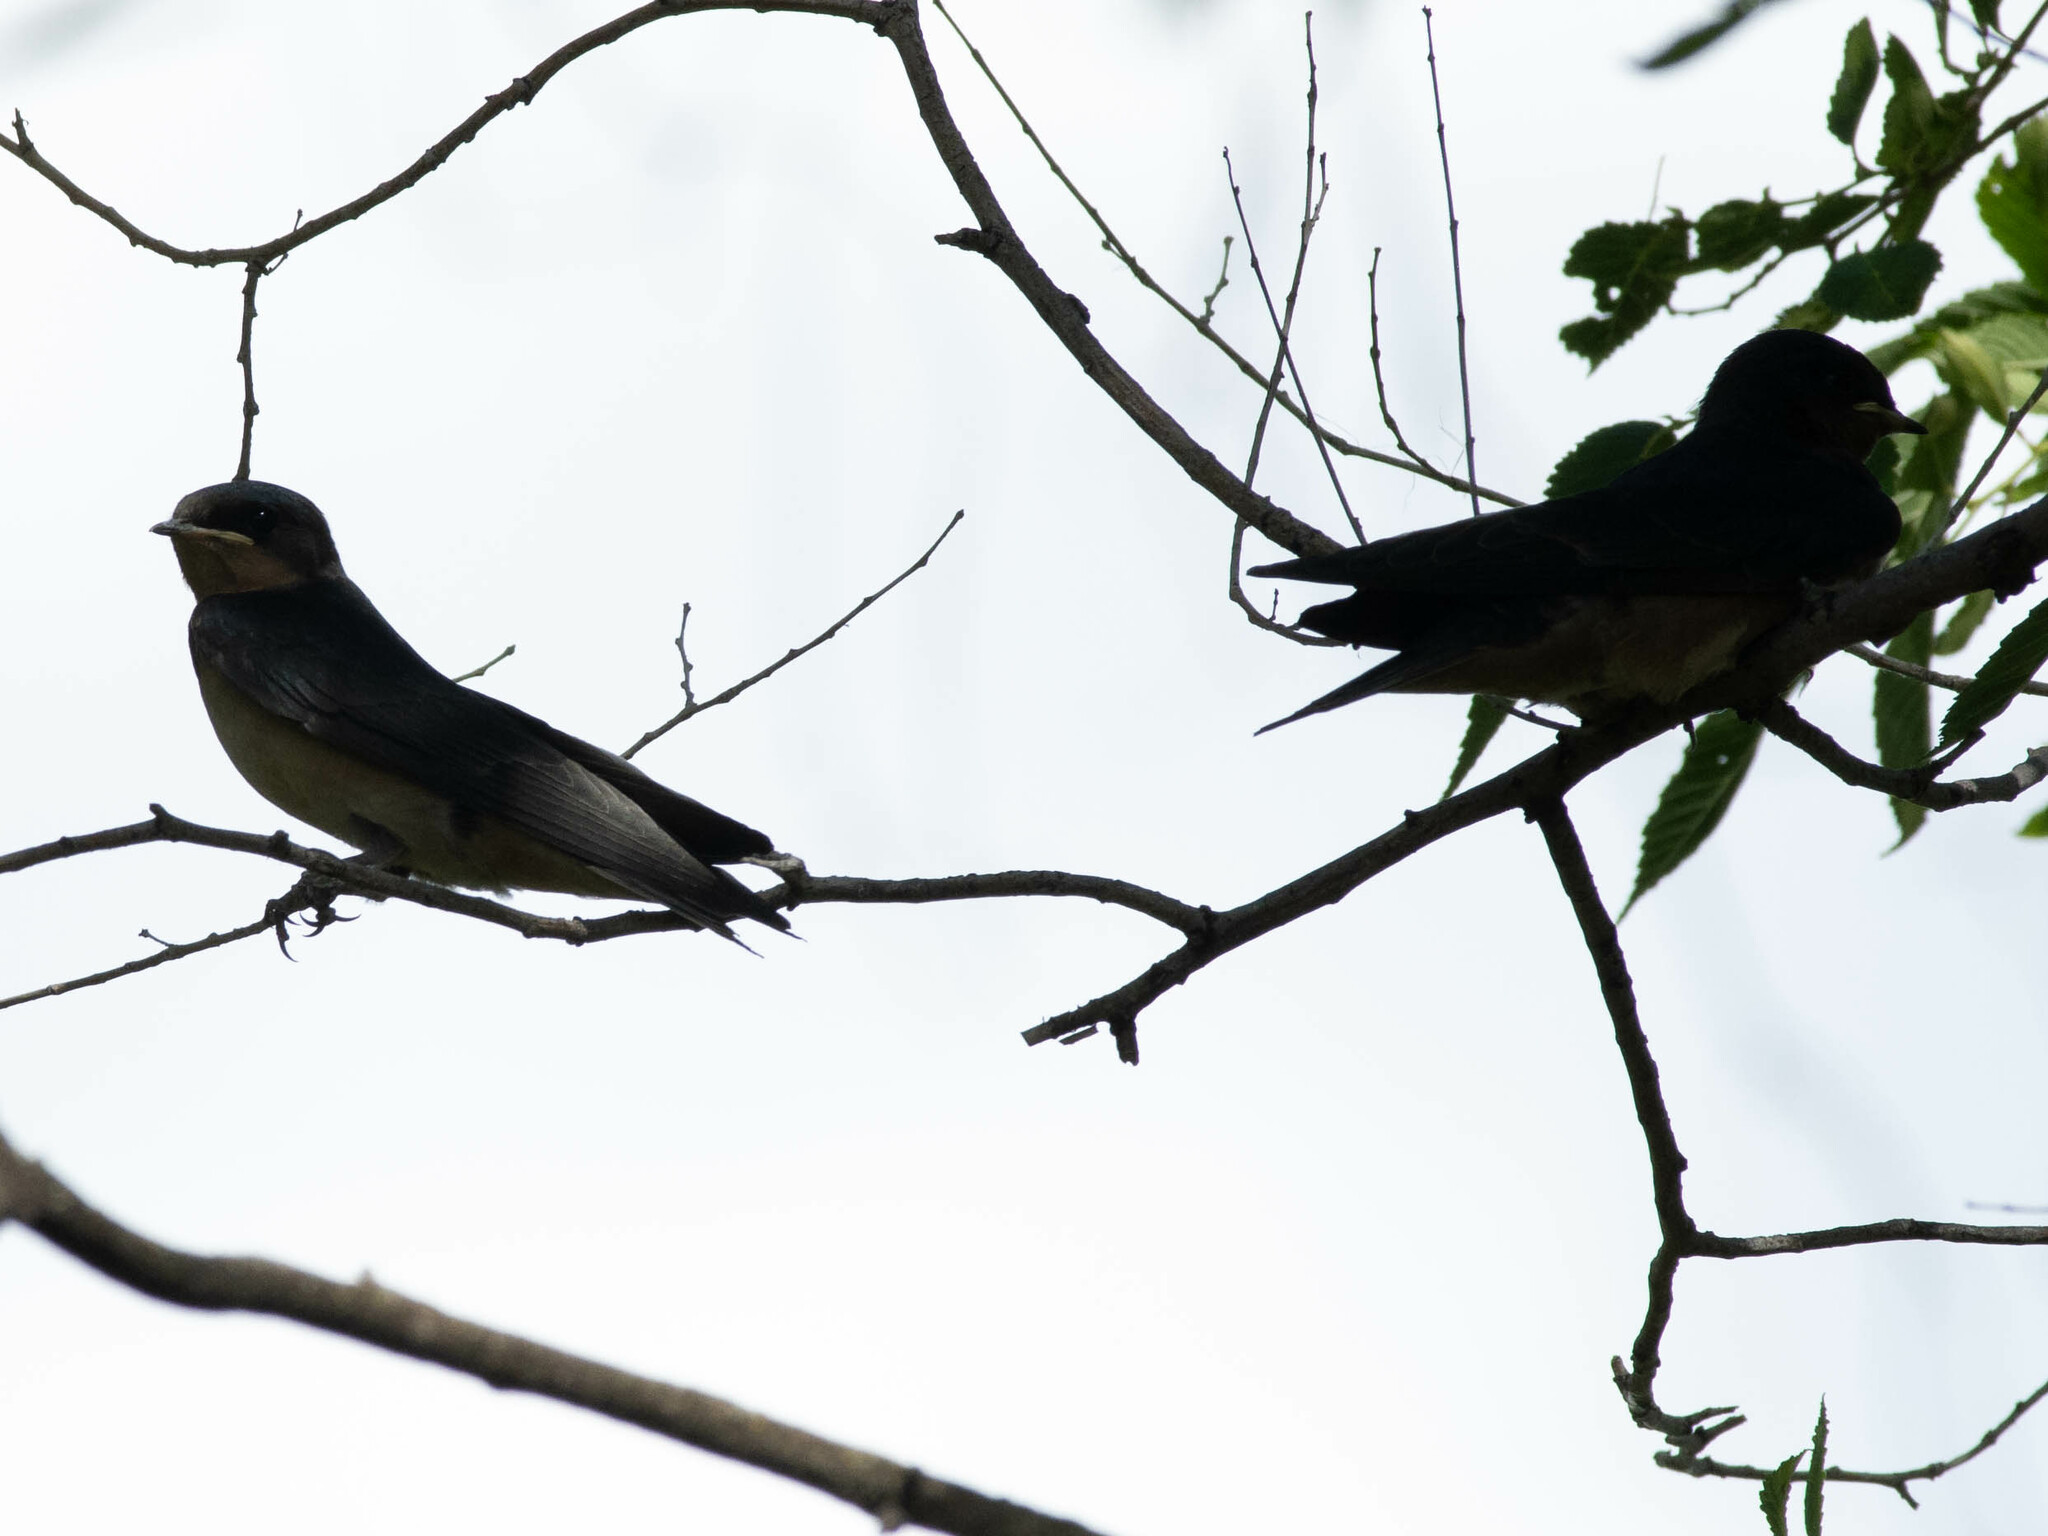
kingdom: Animalia
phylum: Chordata
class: Aves
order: Passeriformes
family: Hirundinidae
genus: Hirundo
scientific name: Hirundo rustica
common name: Barn swallow
